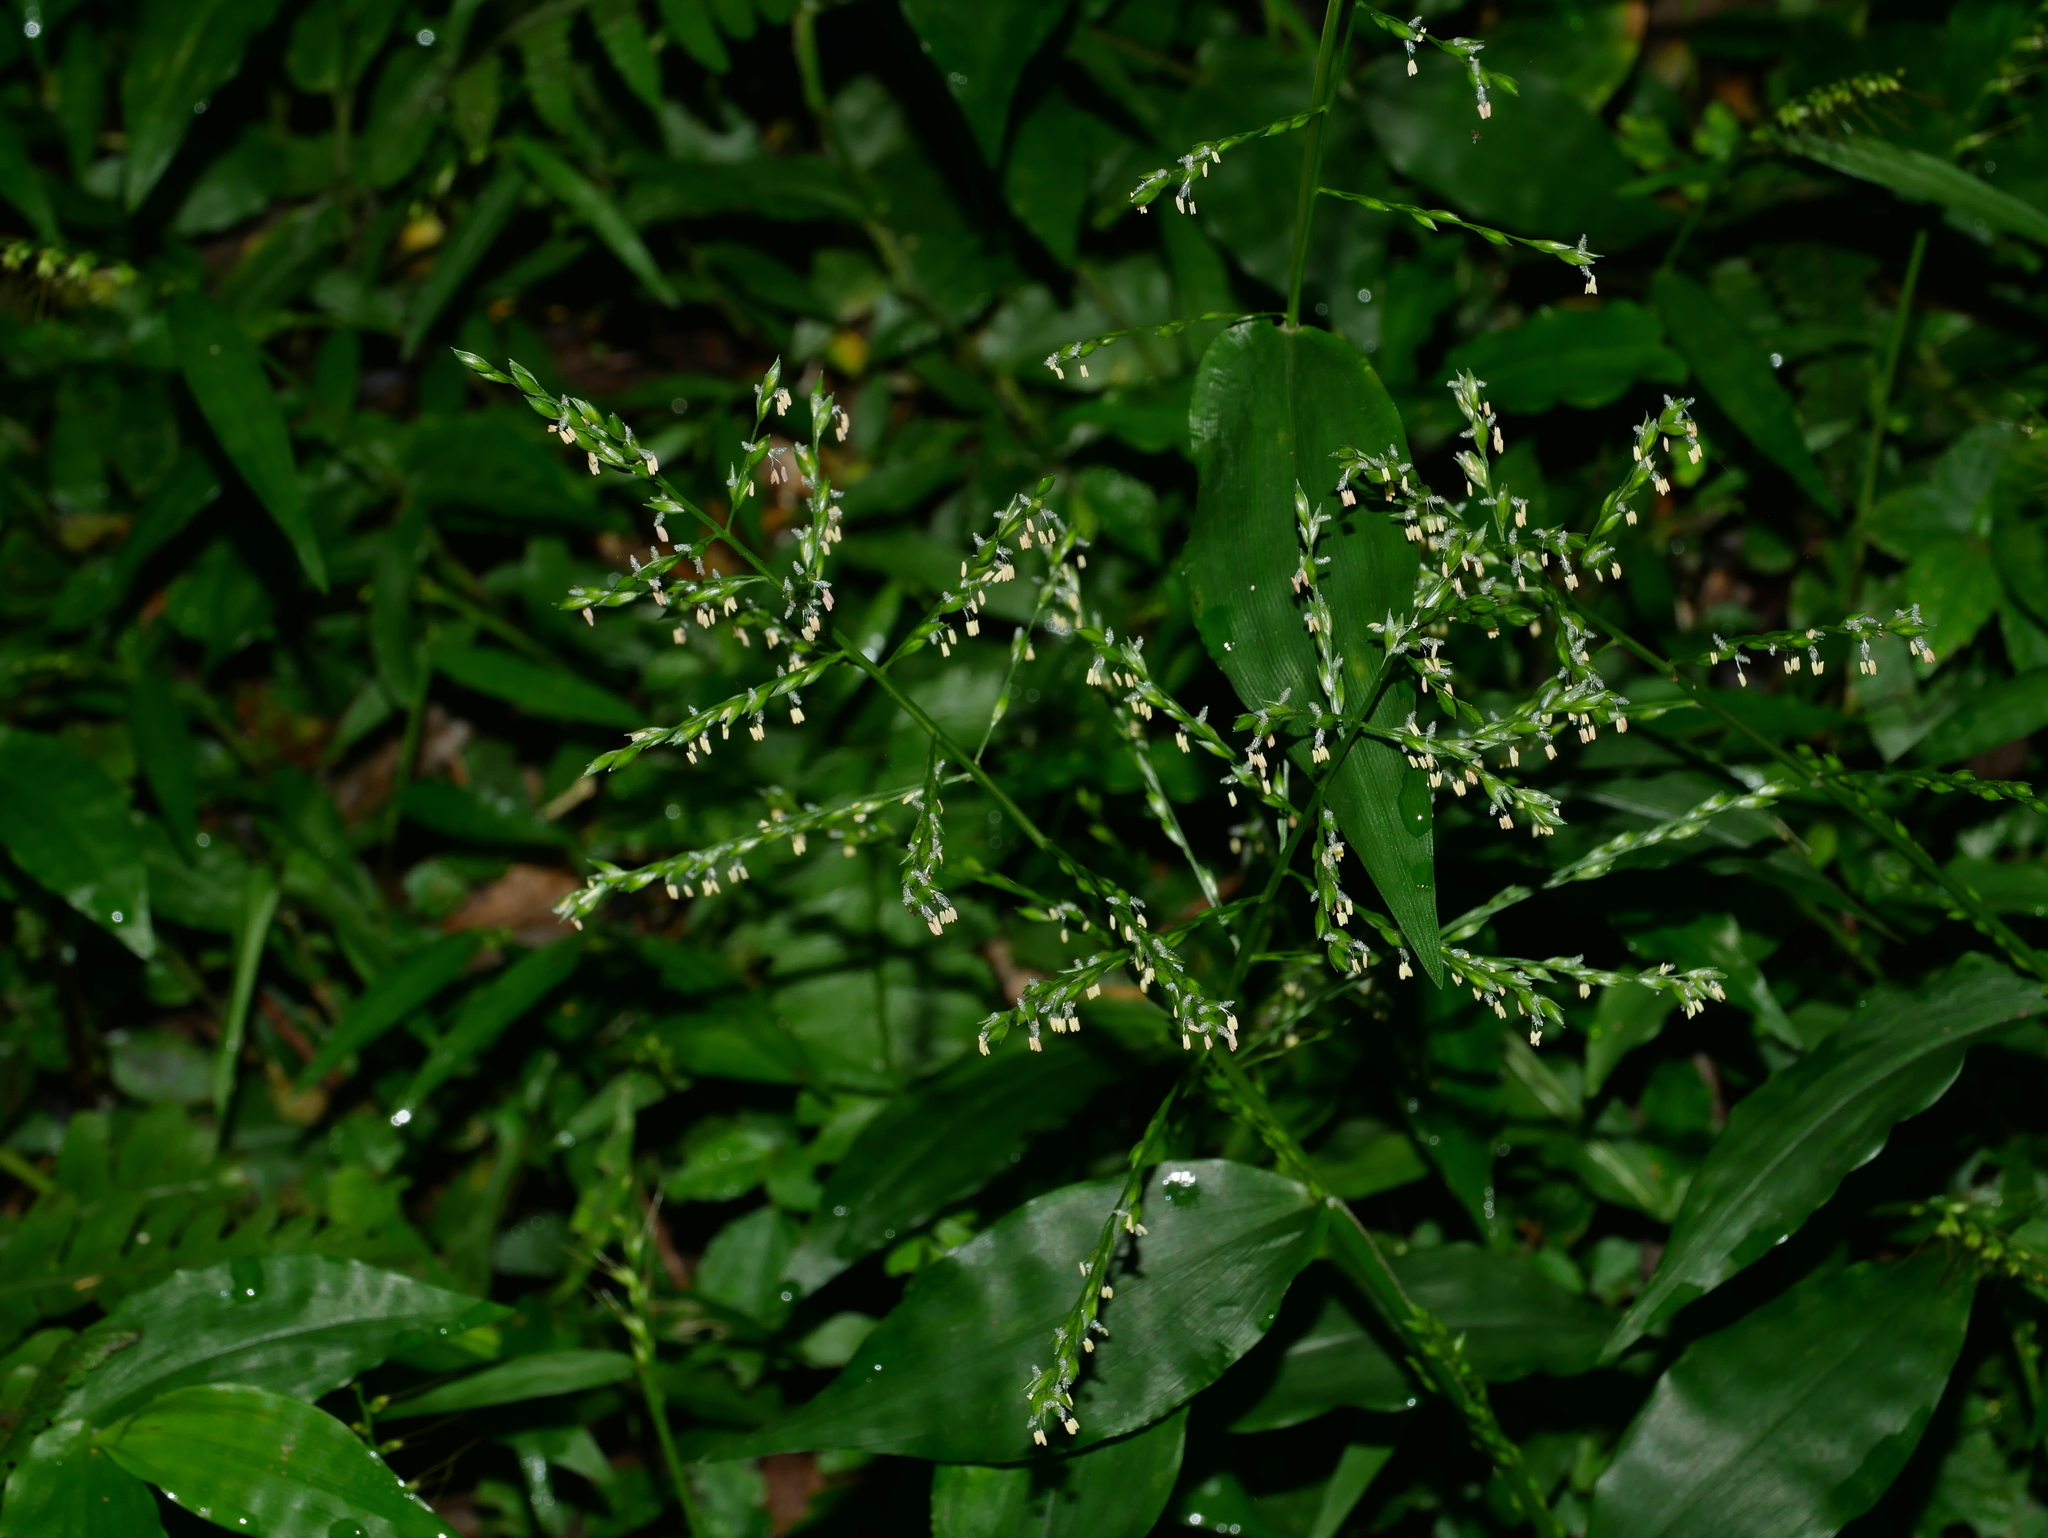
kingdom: Plantae
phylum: Tracheophyta
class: Liliopsida
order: Poales
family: Poaceae
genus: Ichnanthus
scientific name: Ichnanthus pallens
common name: Water grass
